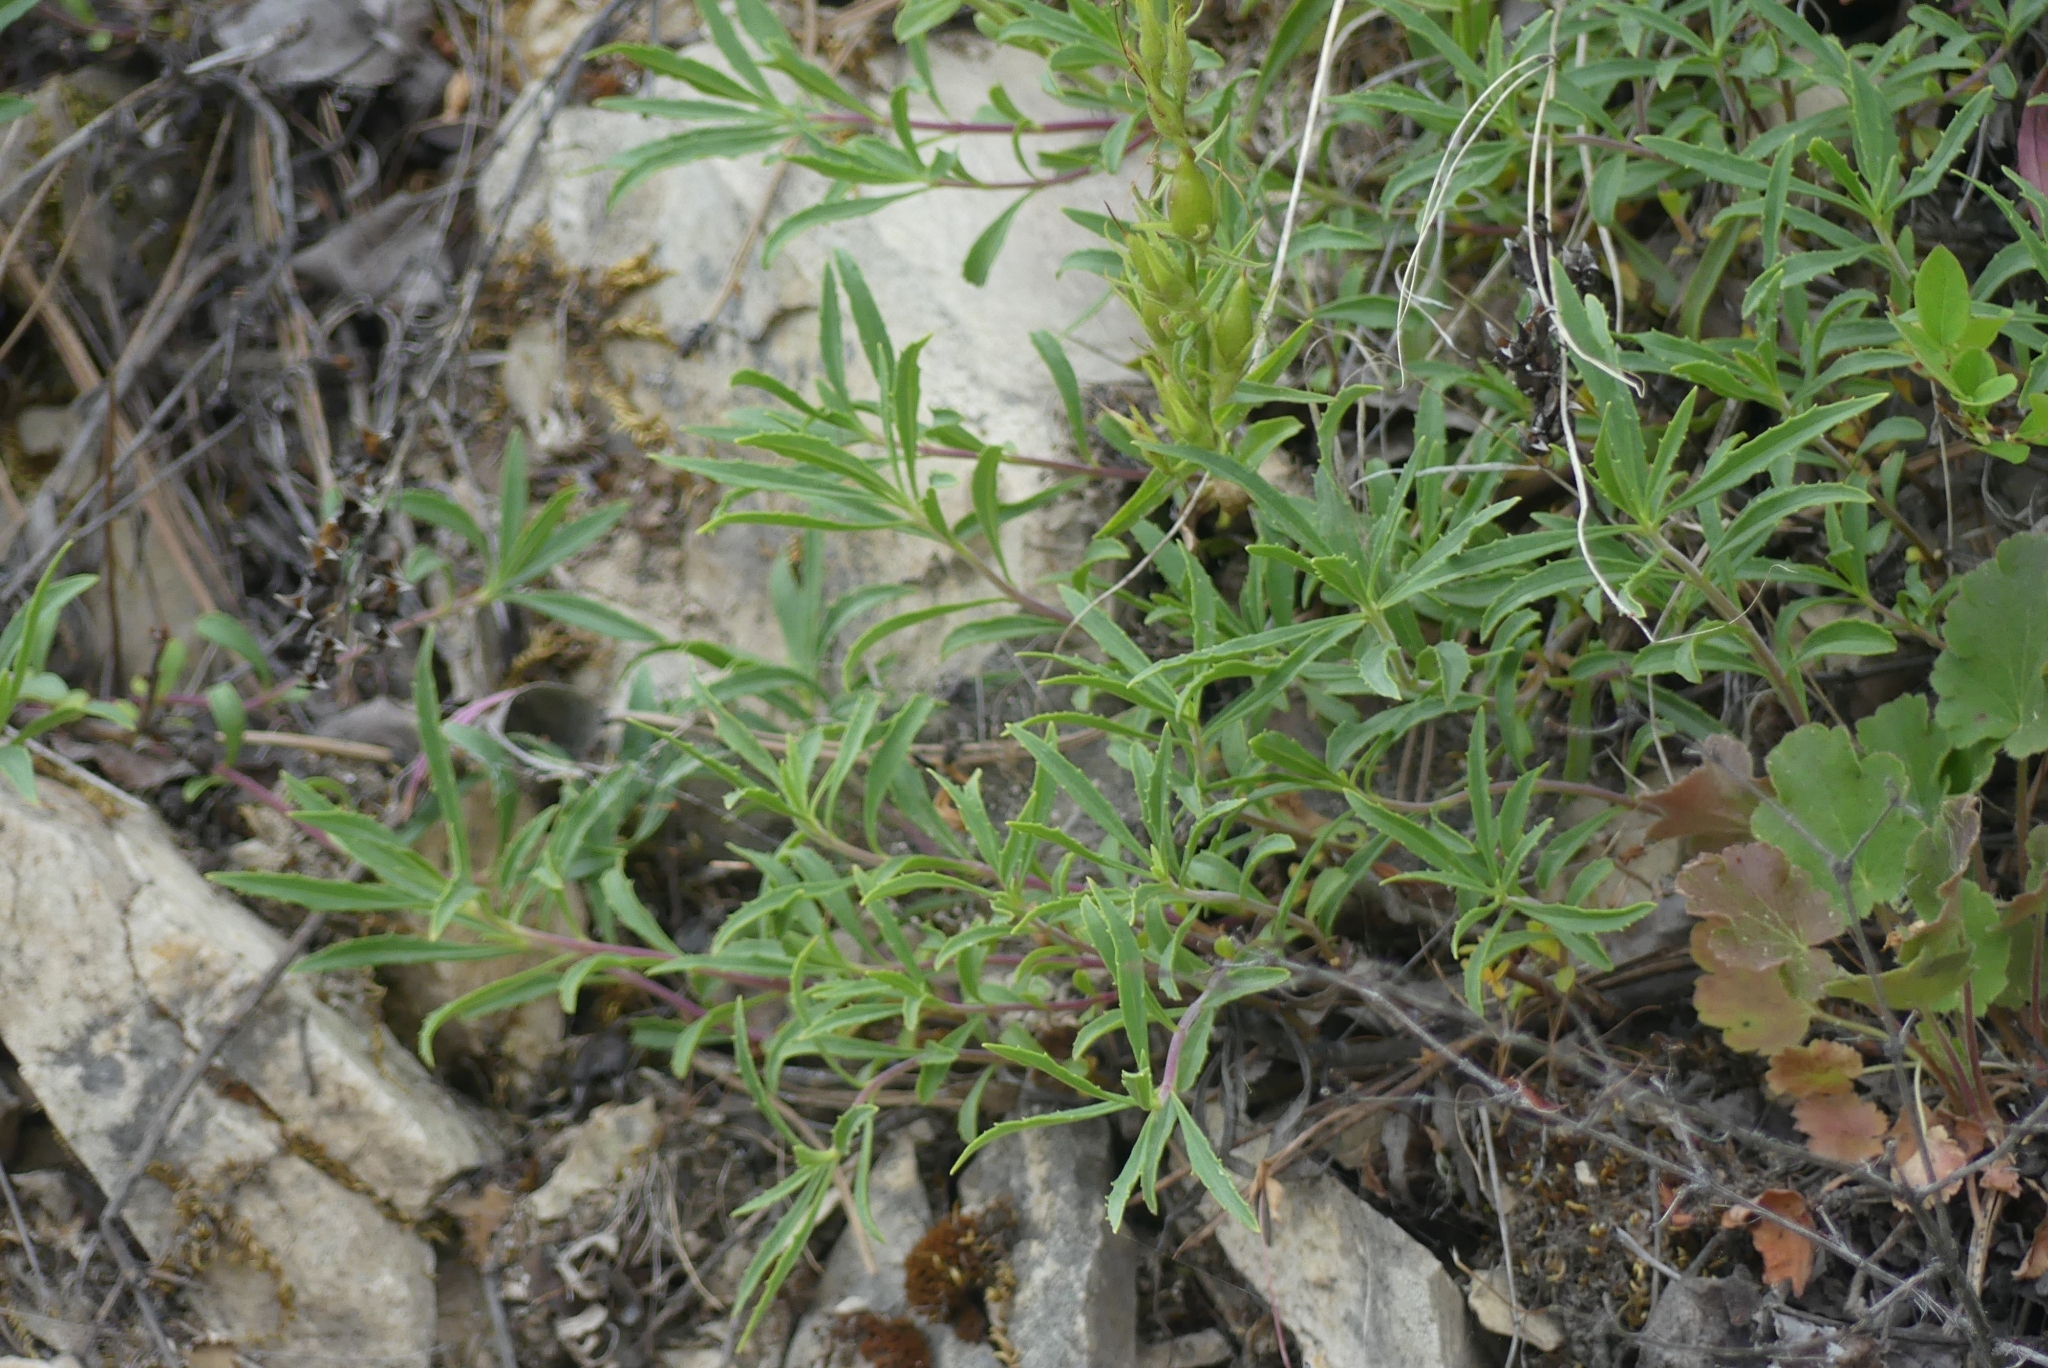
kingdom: Plantae
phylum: Tracheophyta
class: Magnoliopsida
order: Lamiales
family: Plantaginaceae
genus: Penstemon
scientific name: Penstemon fruticosus
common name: Bush penstemon
